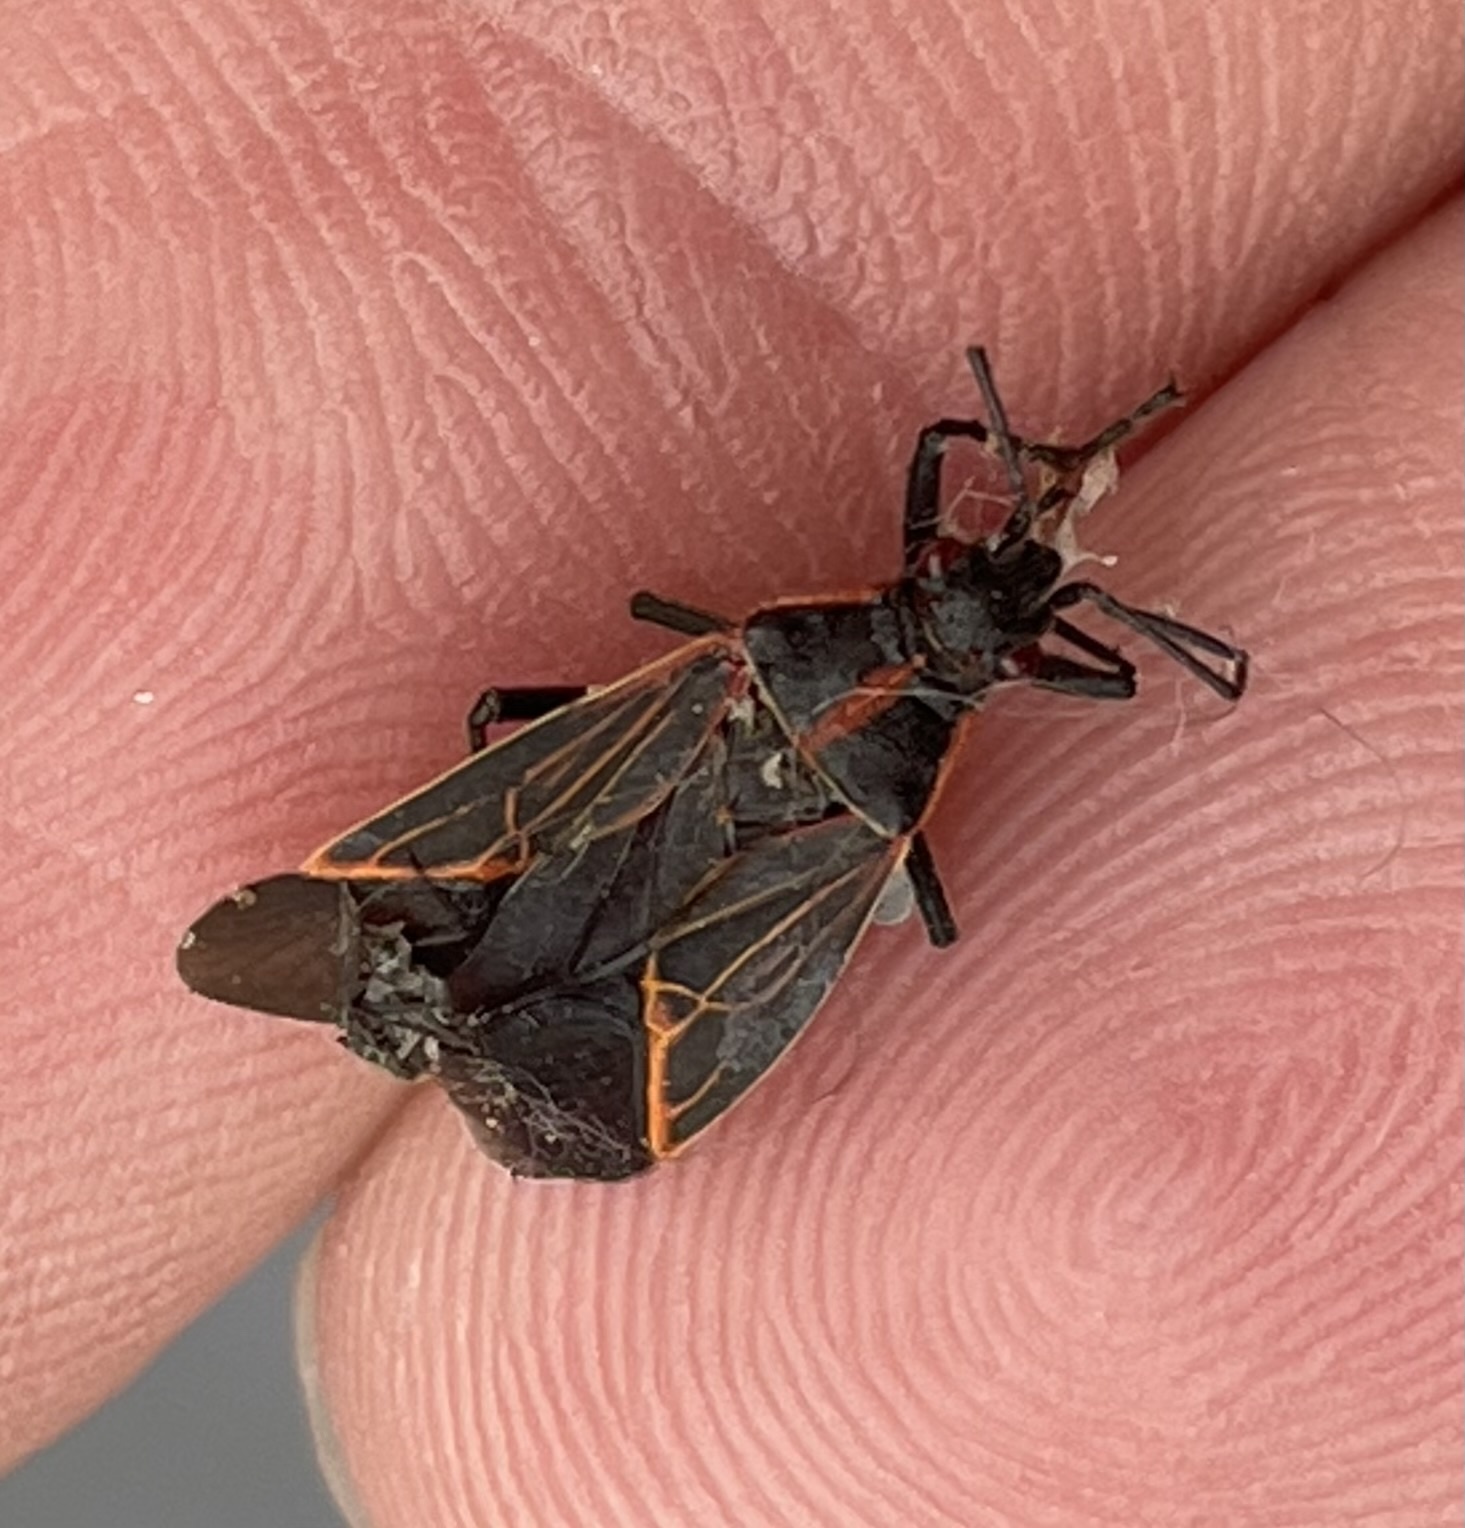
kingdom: Animalia
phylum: Arthropoda
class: Insecta
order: Hemiptera
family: Rhopalidae
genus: Boisea
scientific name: Boisea rubrolineata
